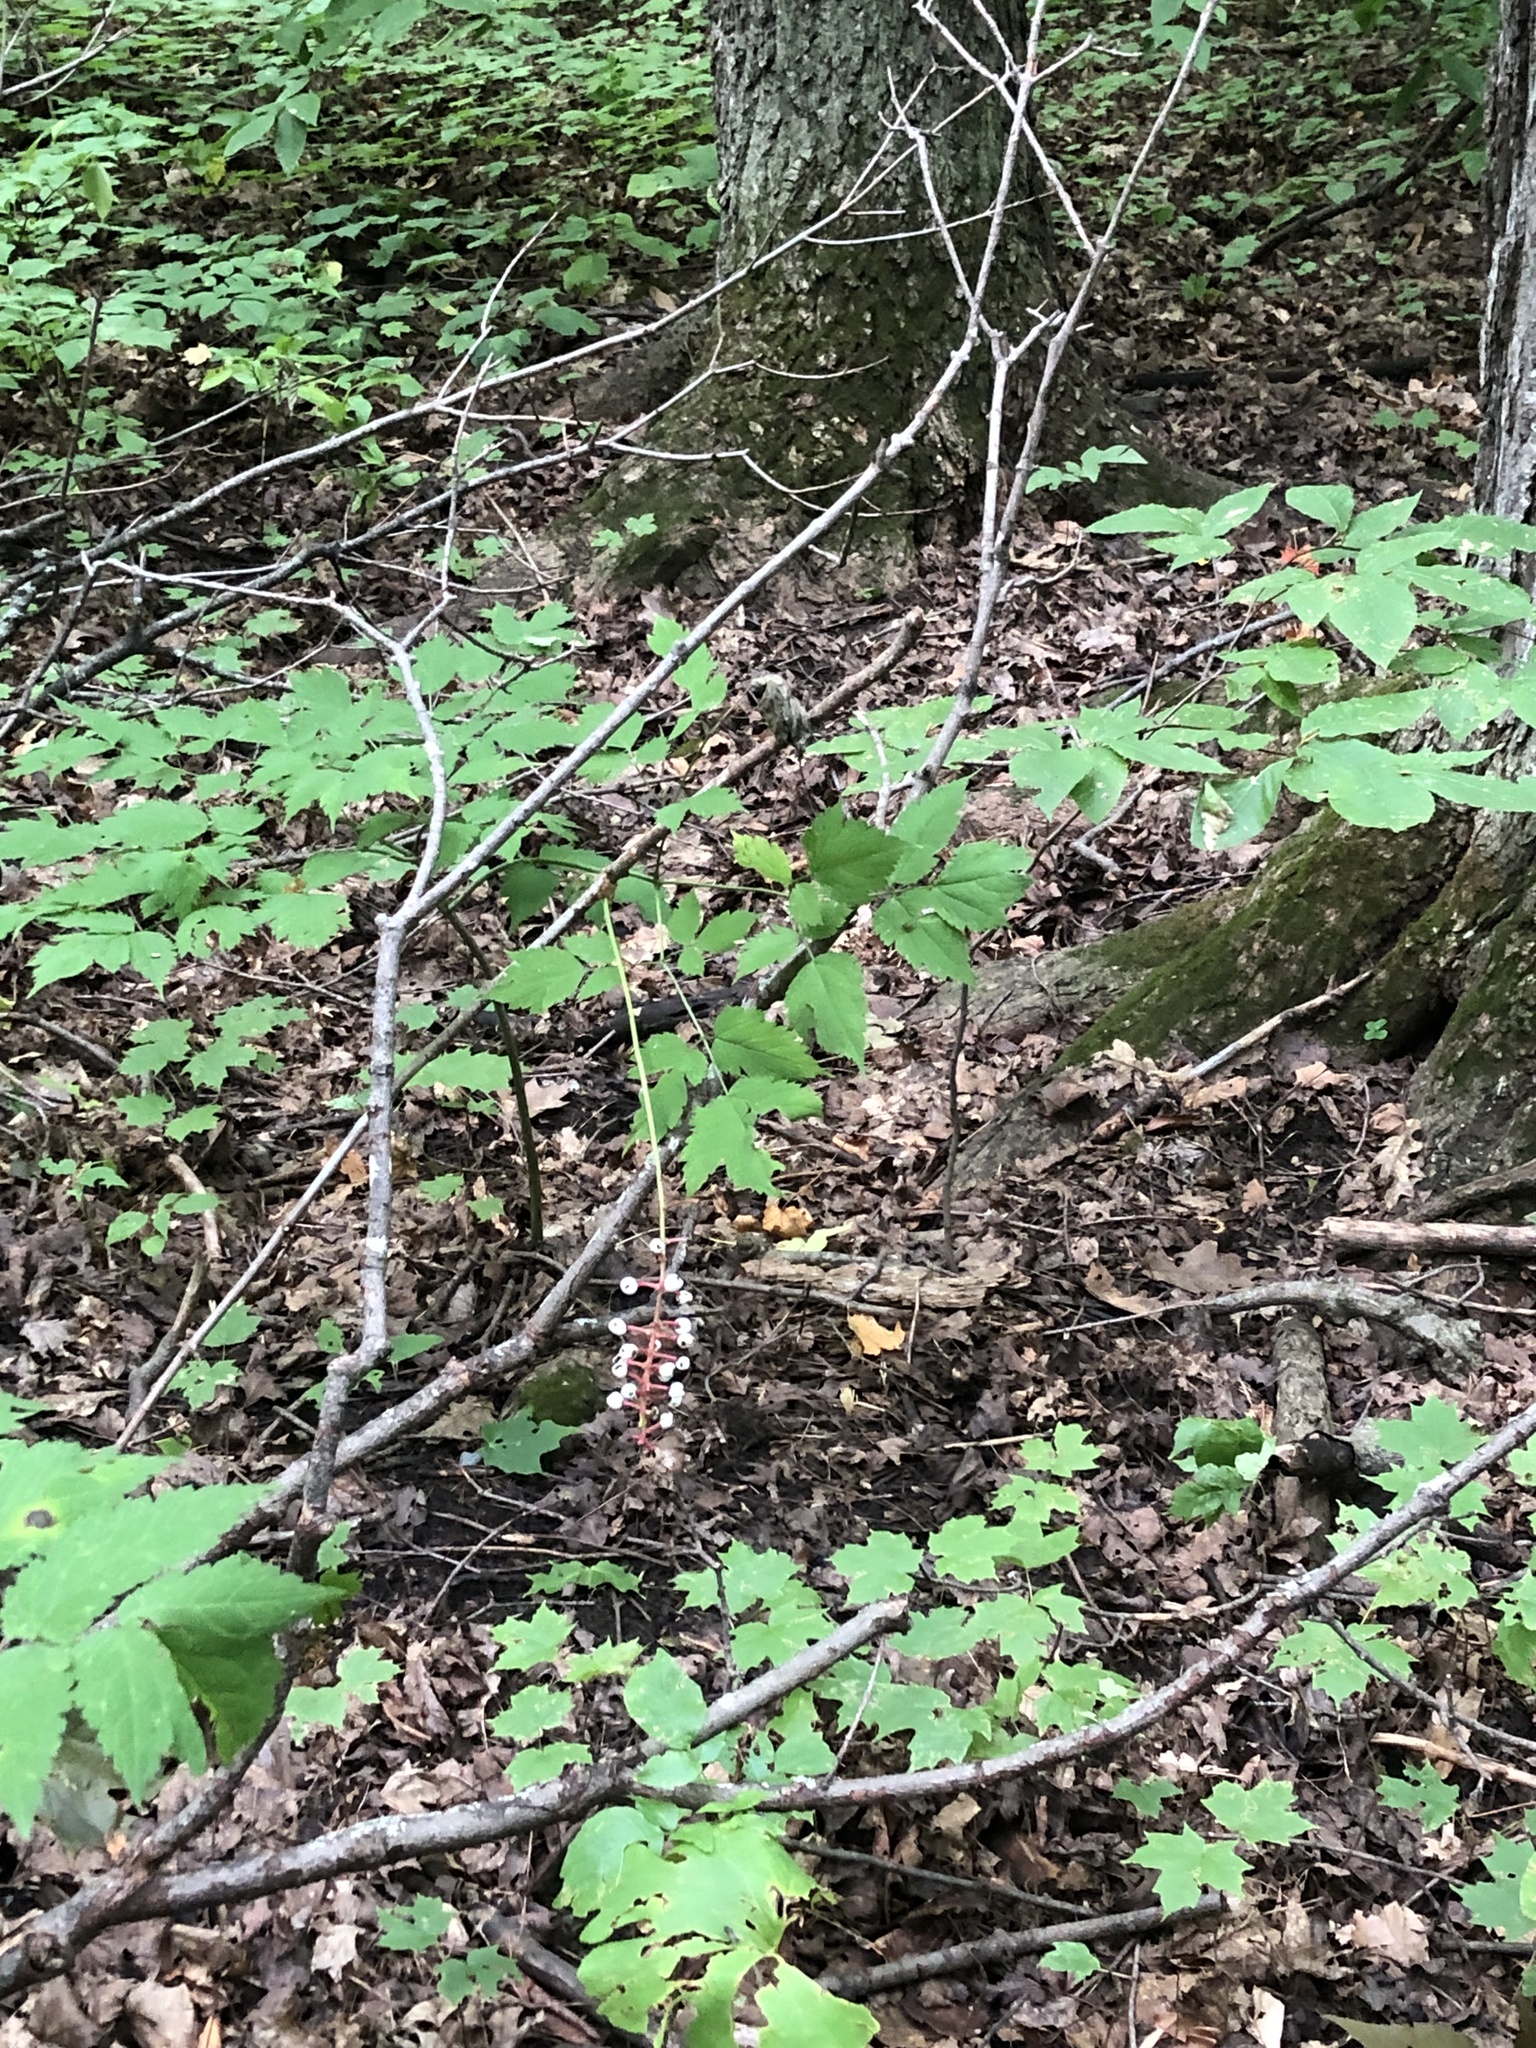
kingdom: Plantae
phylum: Tracheophyta
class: Magnoliopsida
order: Ranunculales
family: Ranunculaceae
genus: Actaea
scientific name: Actaea pachypoda
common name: Doll's-eyes
